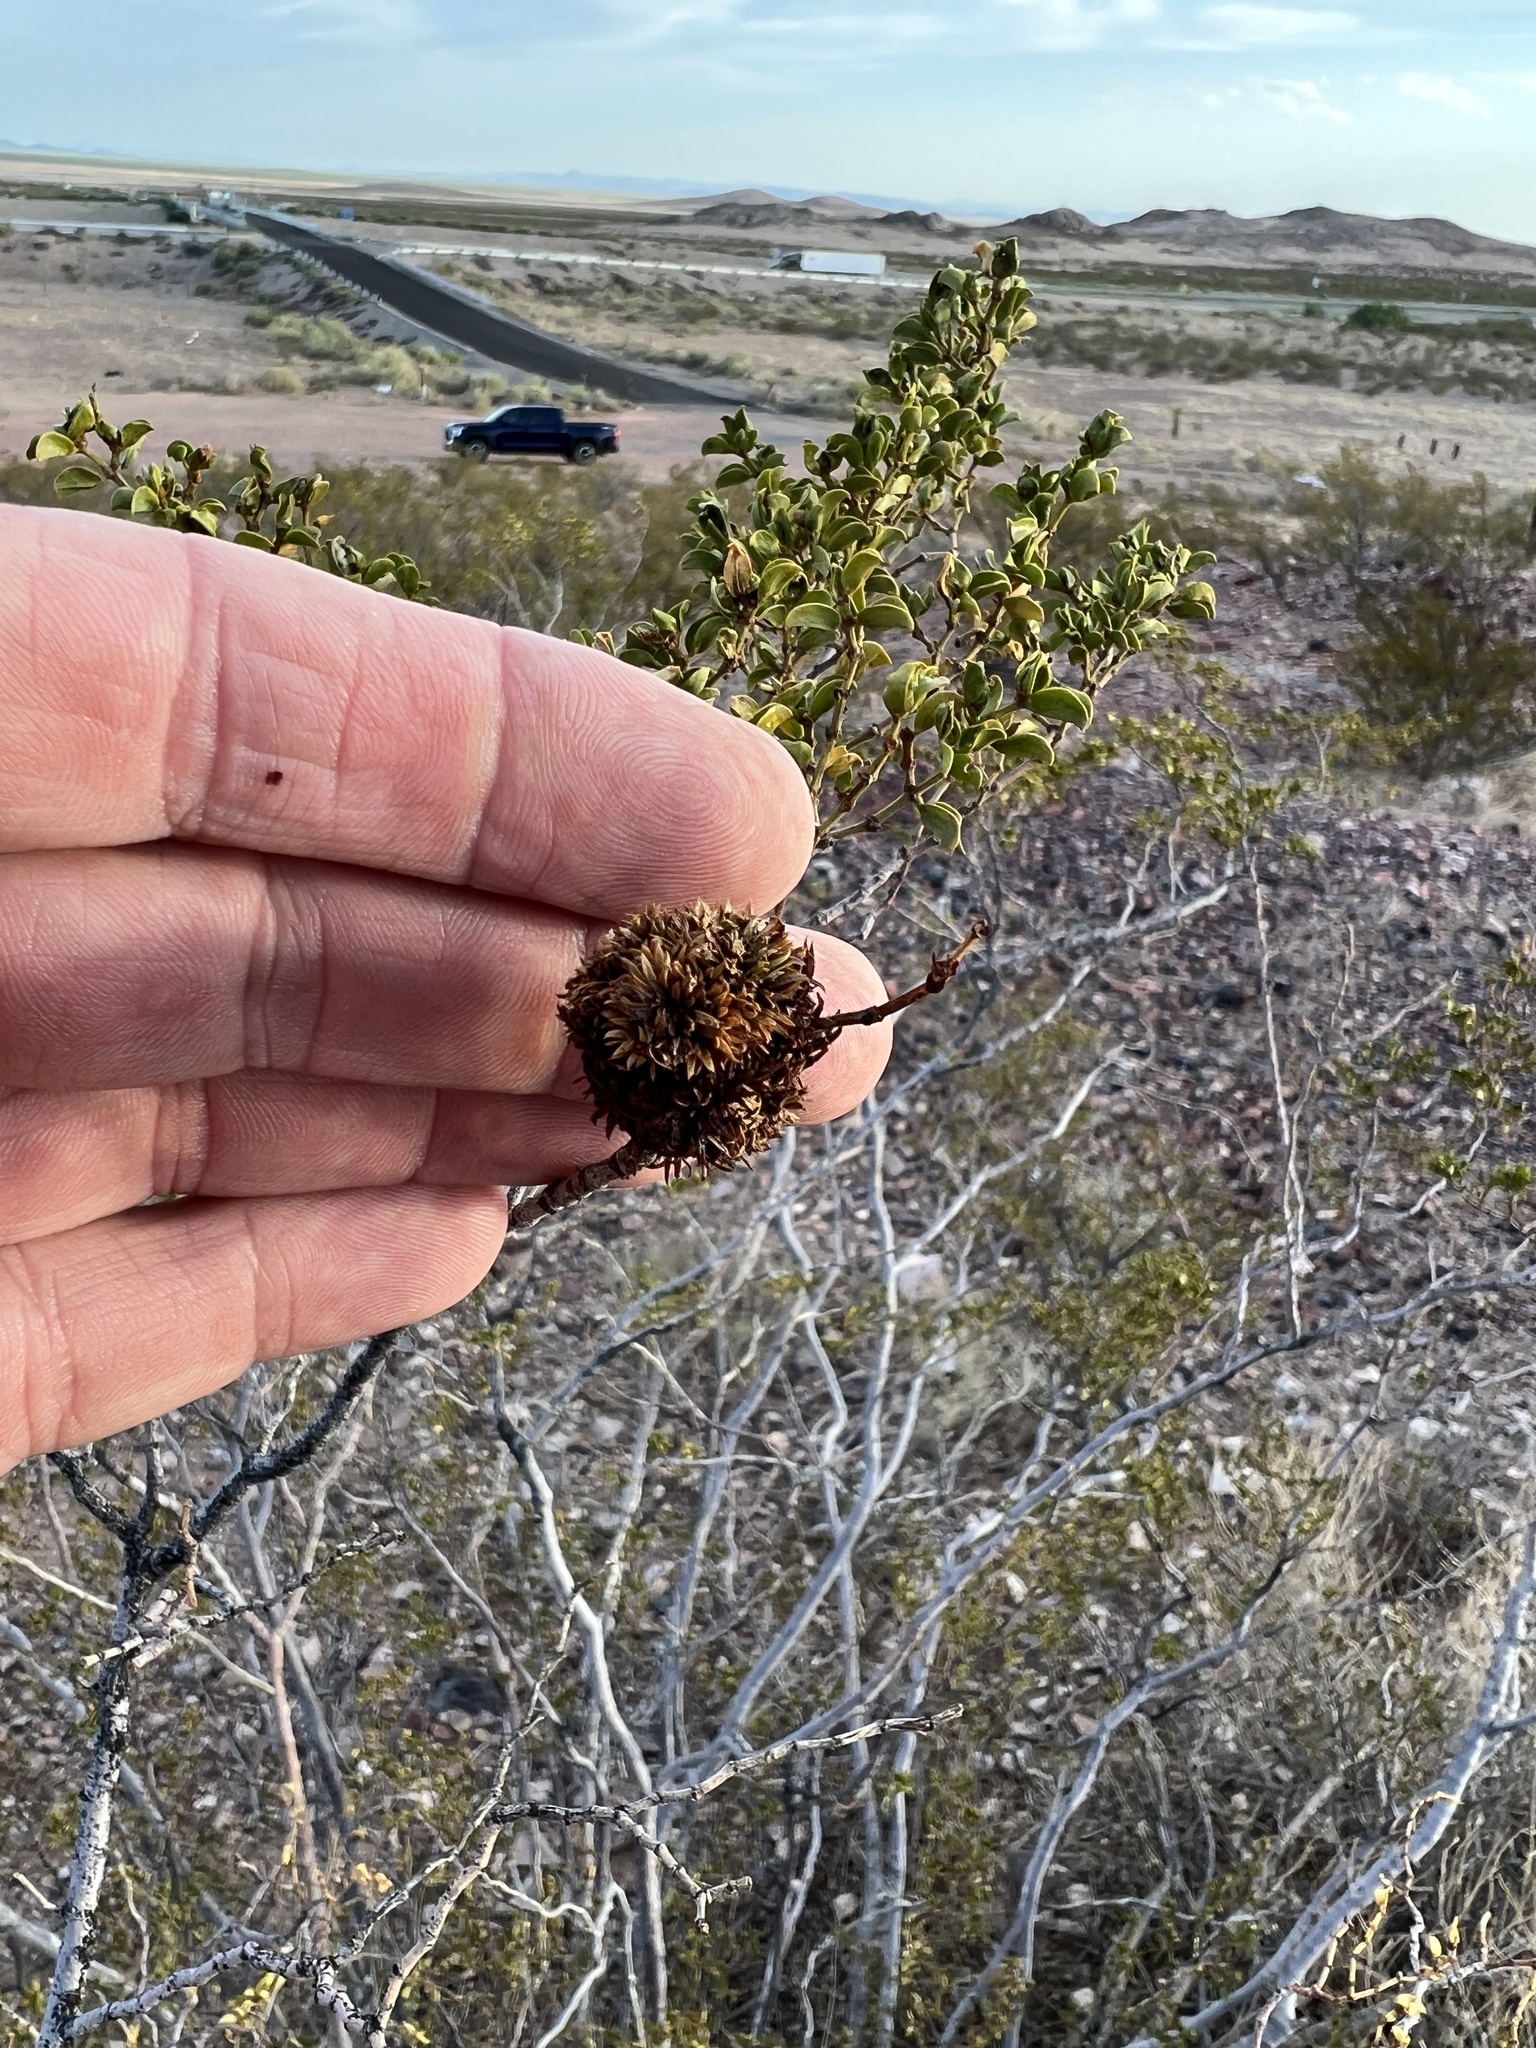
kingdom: Animalia
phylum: Arthropoda
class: Insecta
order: Diptera
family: Cecidomyiidae
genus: Asphondylia
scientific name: Asphondylia auripila
